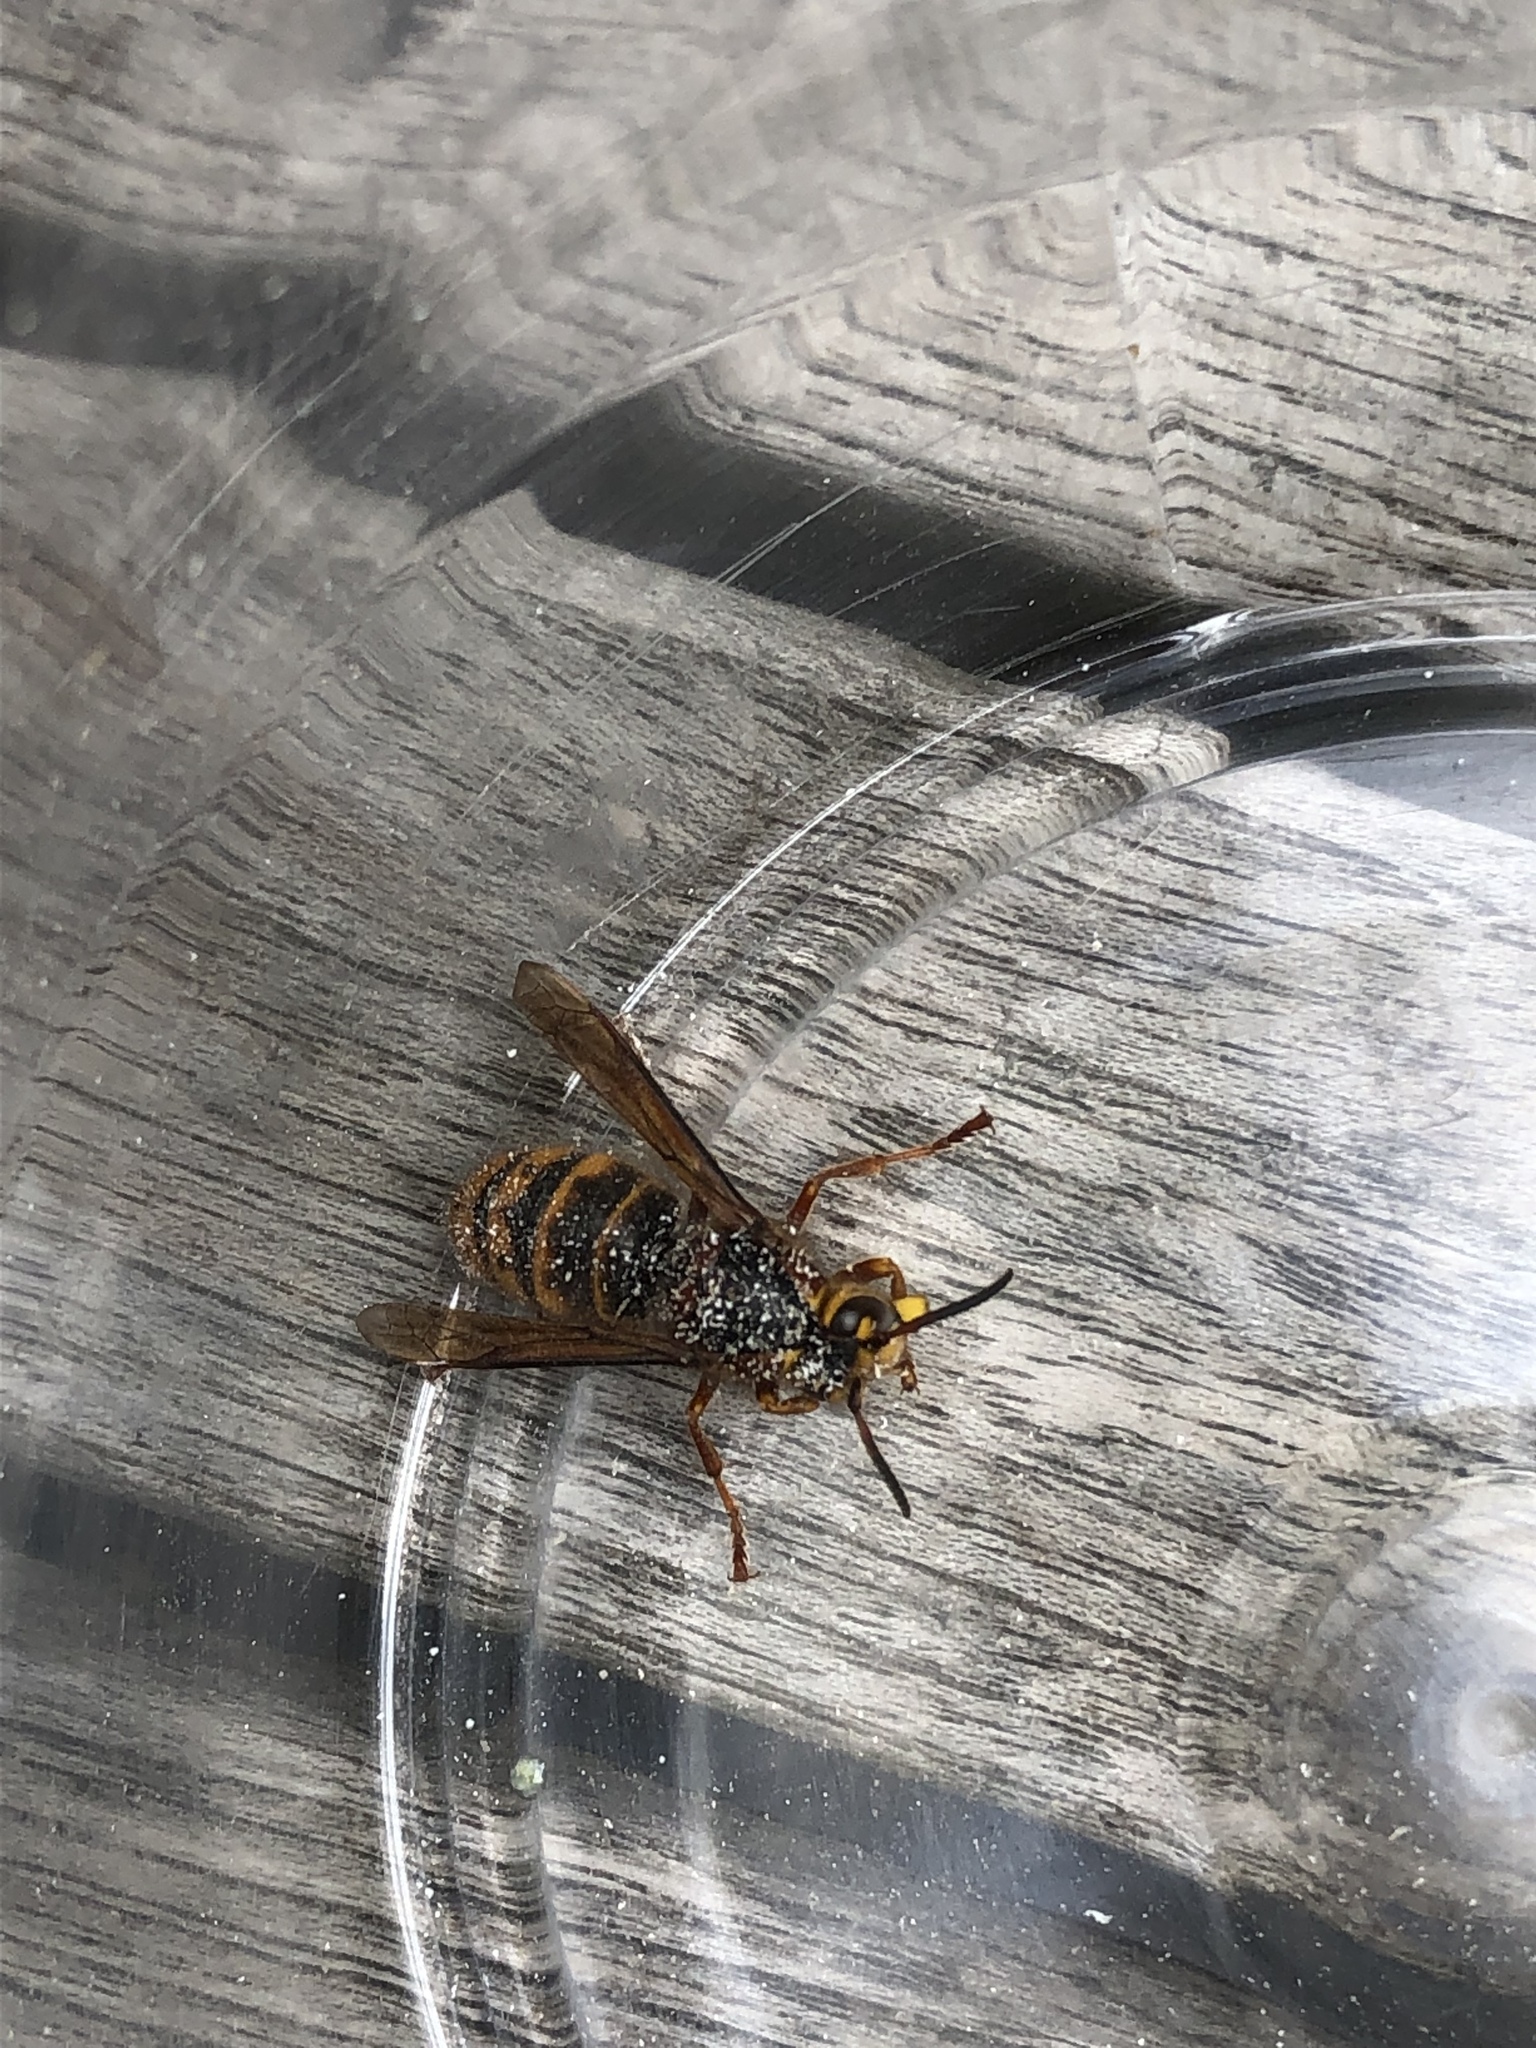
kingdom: Animalia
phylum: Arthropoda
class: Insecta
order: Hymenoptera
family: Vespidae
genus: Dolichovespula
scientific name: Dolichovespula media
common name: Median wasp
